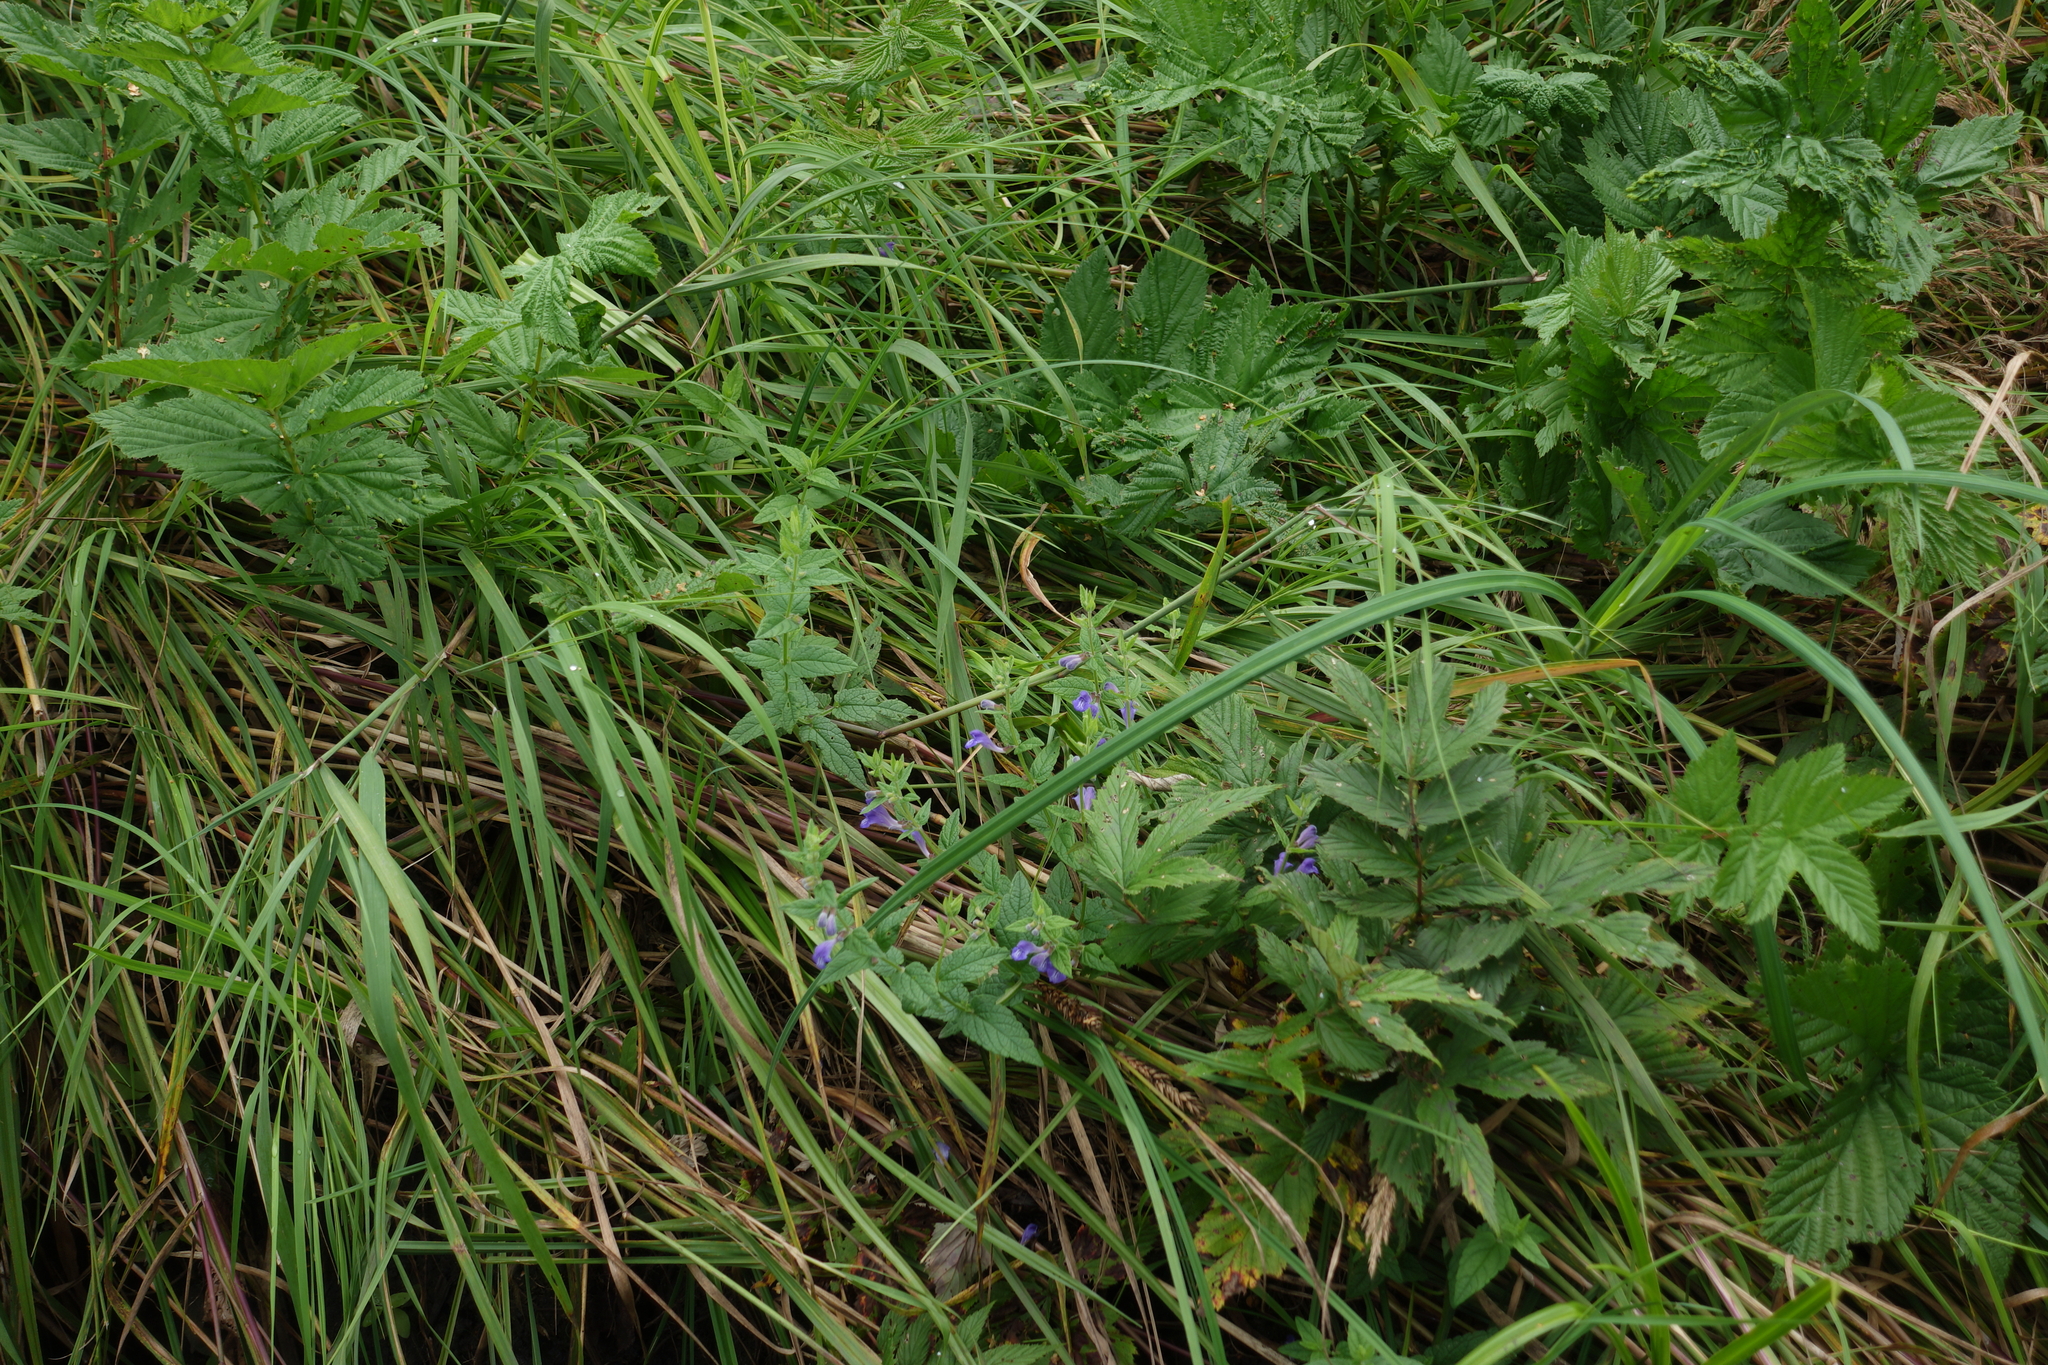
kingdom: Plantae
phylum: Tracheophyta
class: Magnoliopsida
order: Lamiales
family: Lamiaceae
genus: Scutellaria
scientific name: Scutellaria galericulata
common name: Skullcap
